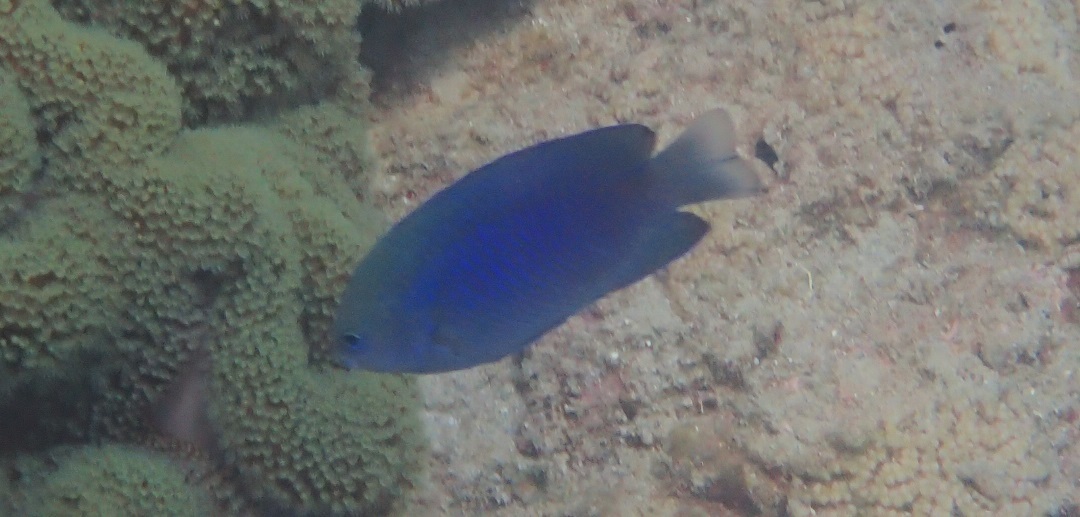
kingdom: Animalia
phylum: Chordata
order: Perciformes
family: Pomacentridae
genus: Pomacentrus
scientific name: Pomacentrus australis
